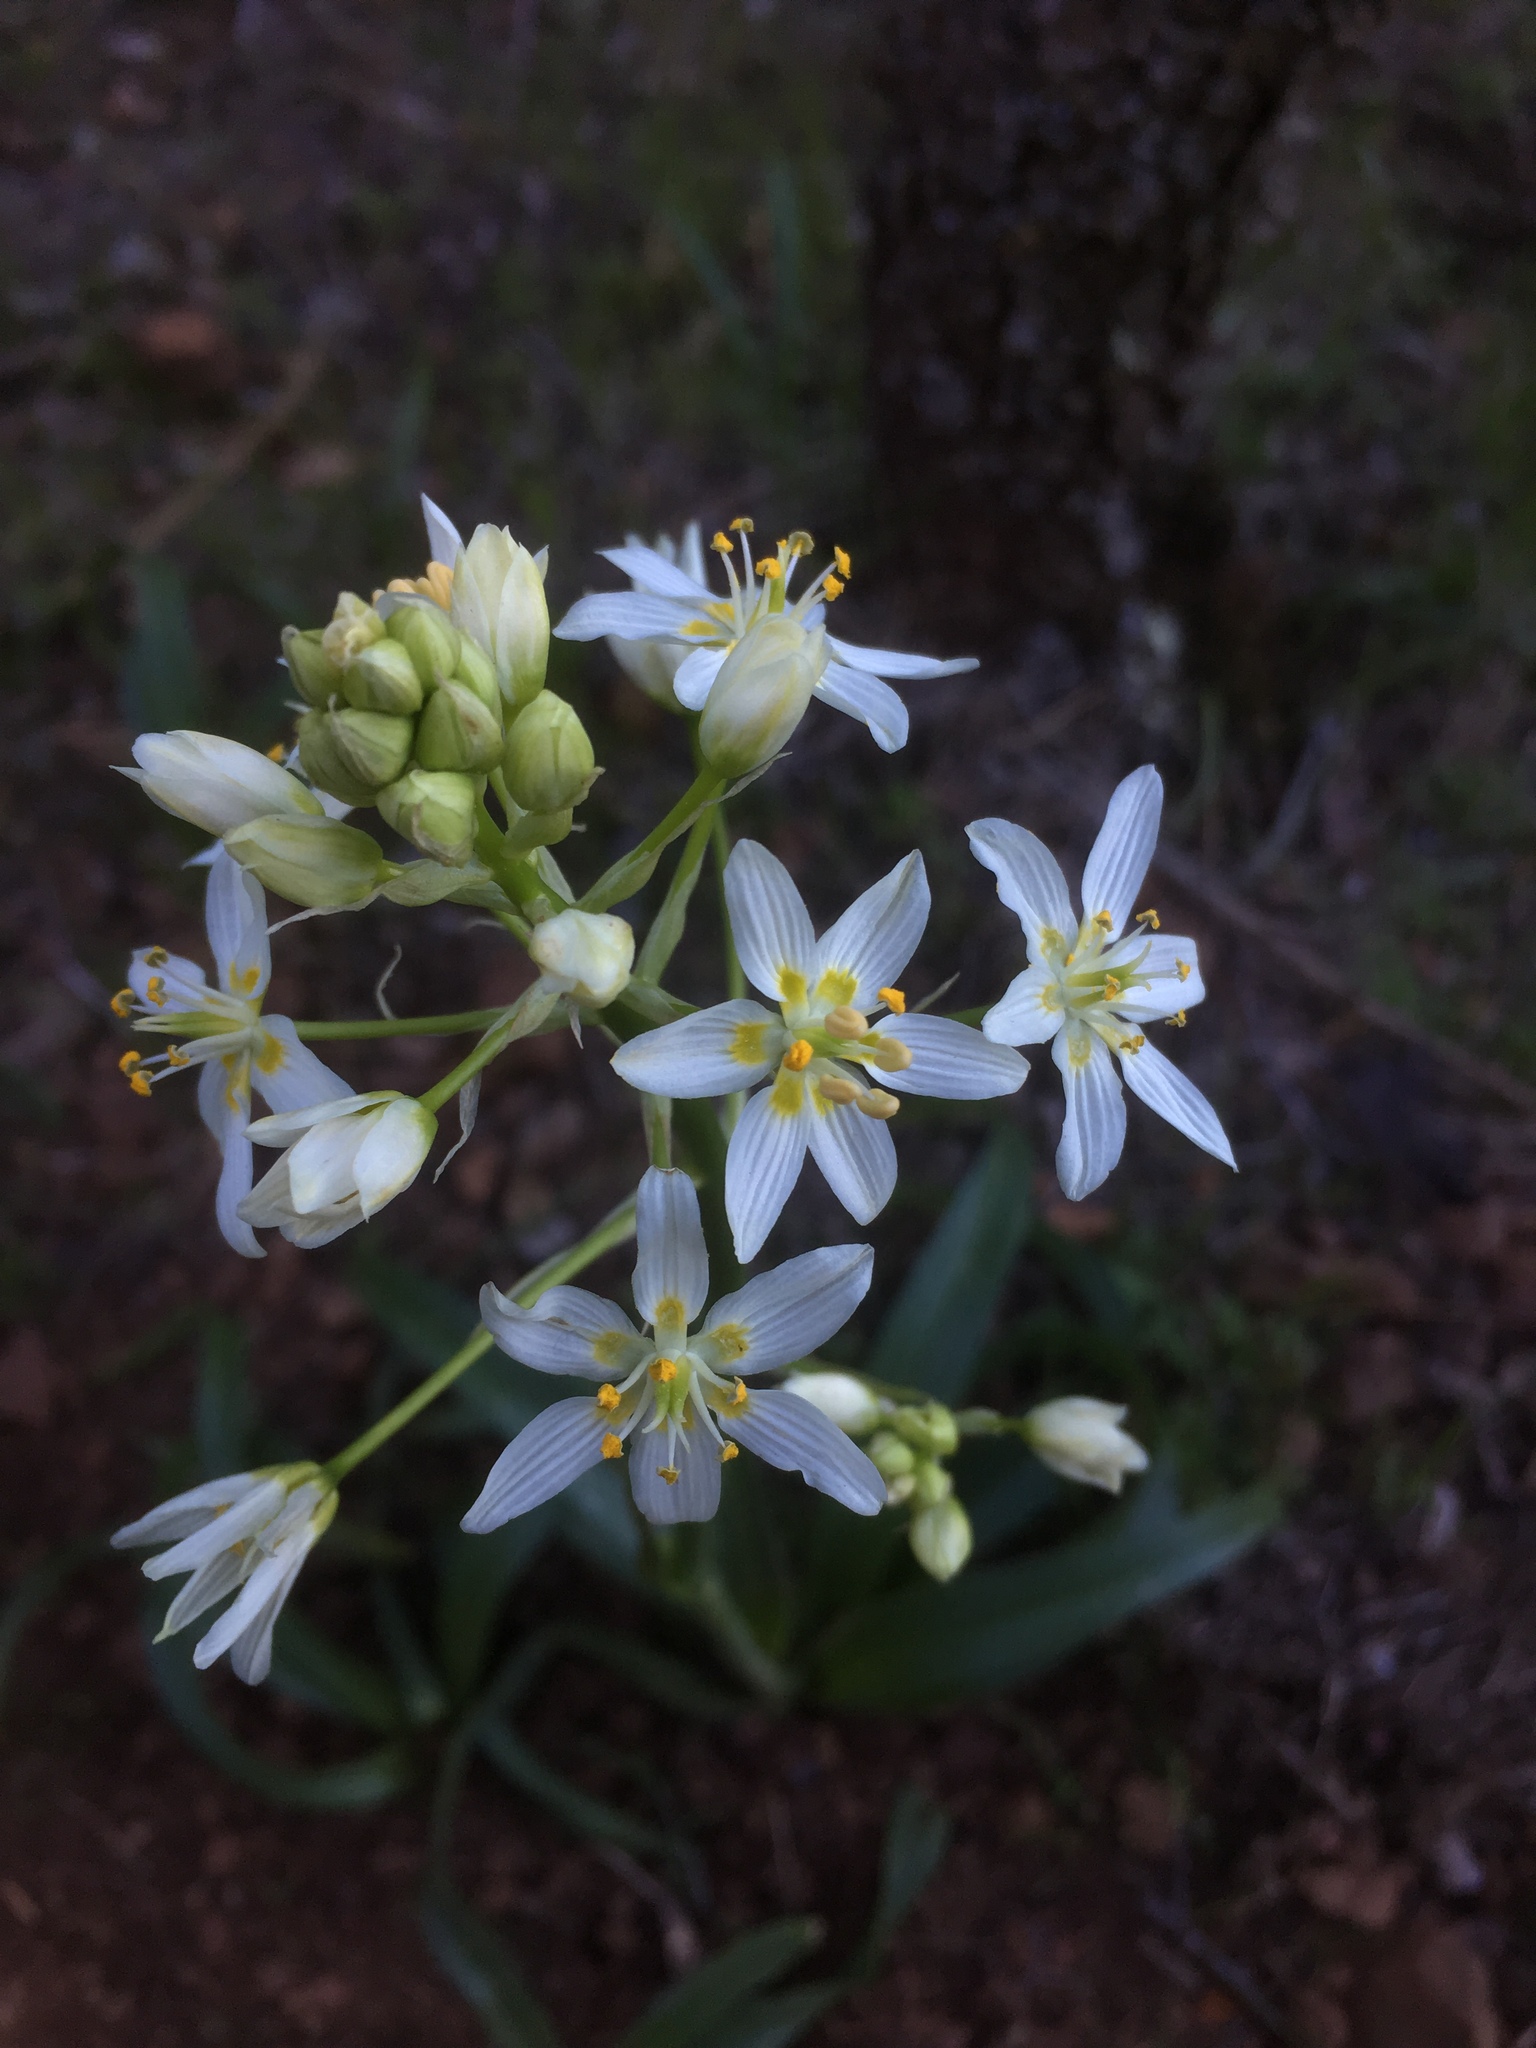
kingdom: Plantae
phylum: Tracheophyta
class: Liliopsida
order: Liliales
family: Melanthiaceae
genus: Toxicoscordion
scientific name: Toxicoscordion fremontii
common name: Fremont's death camas
